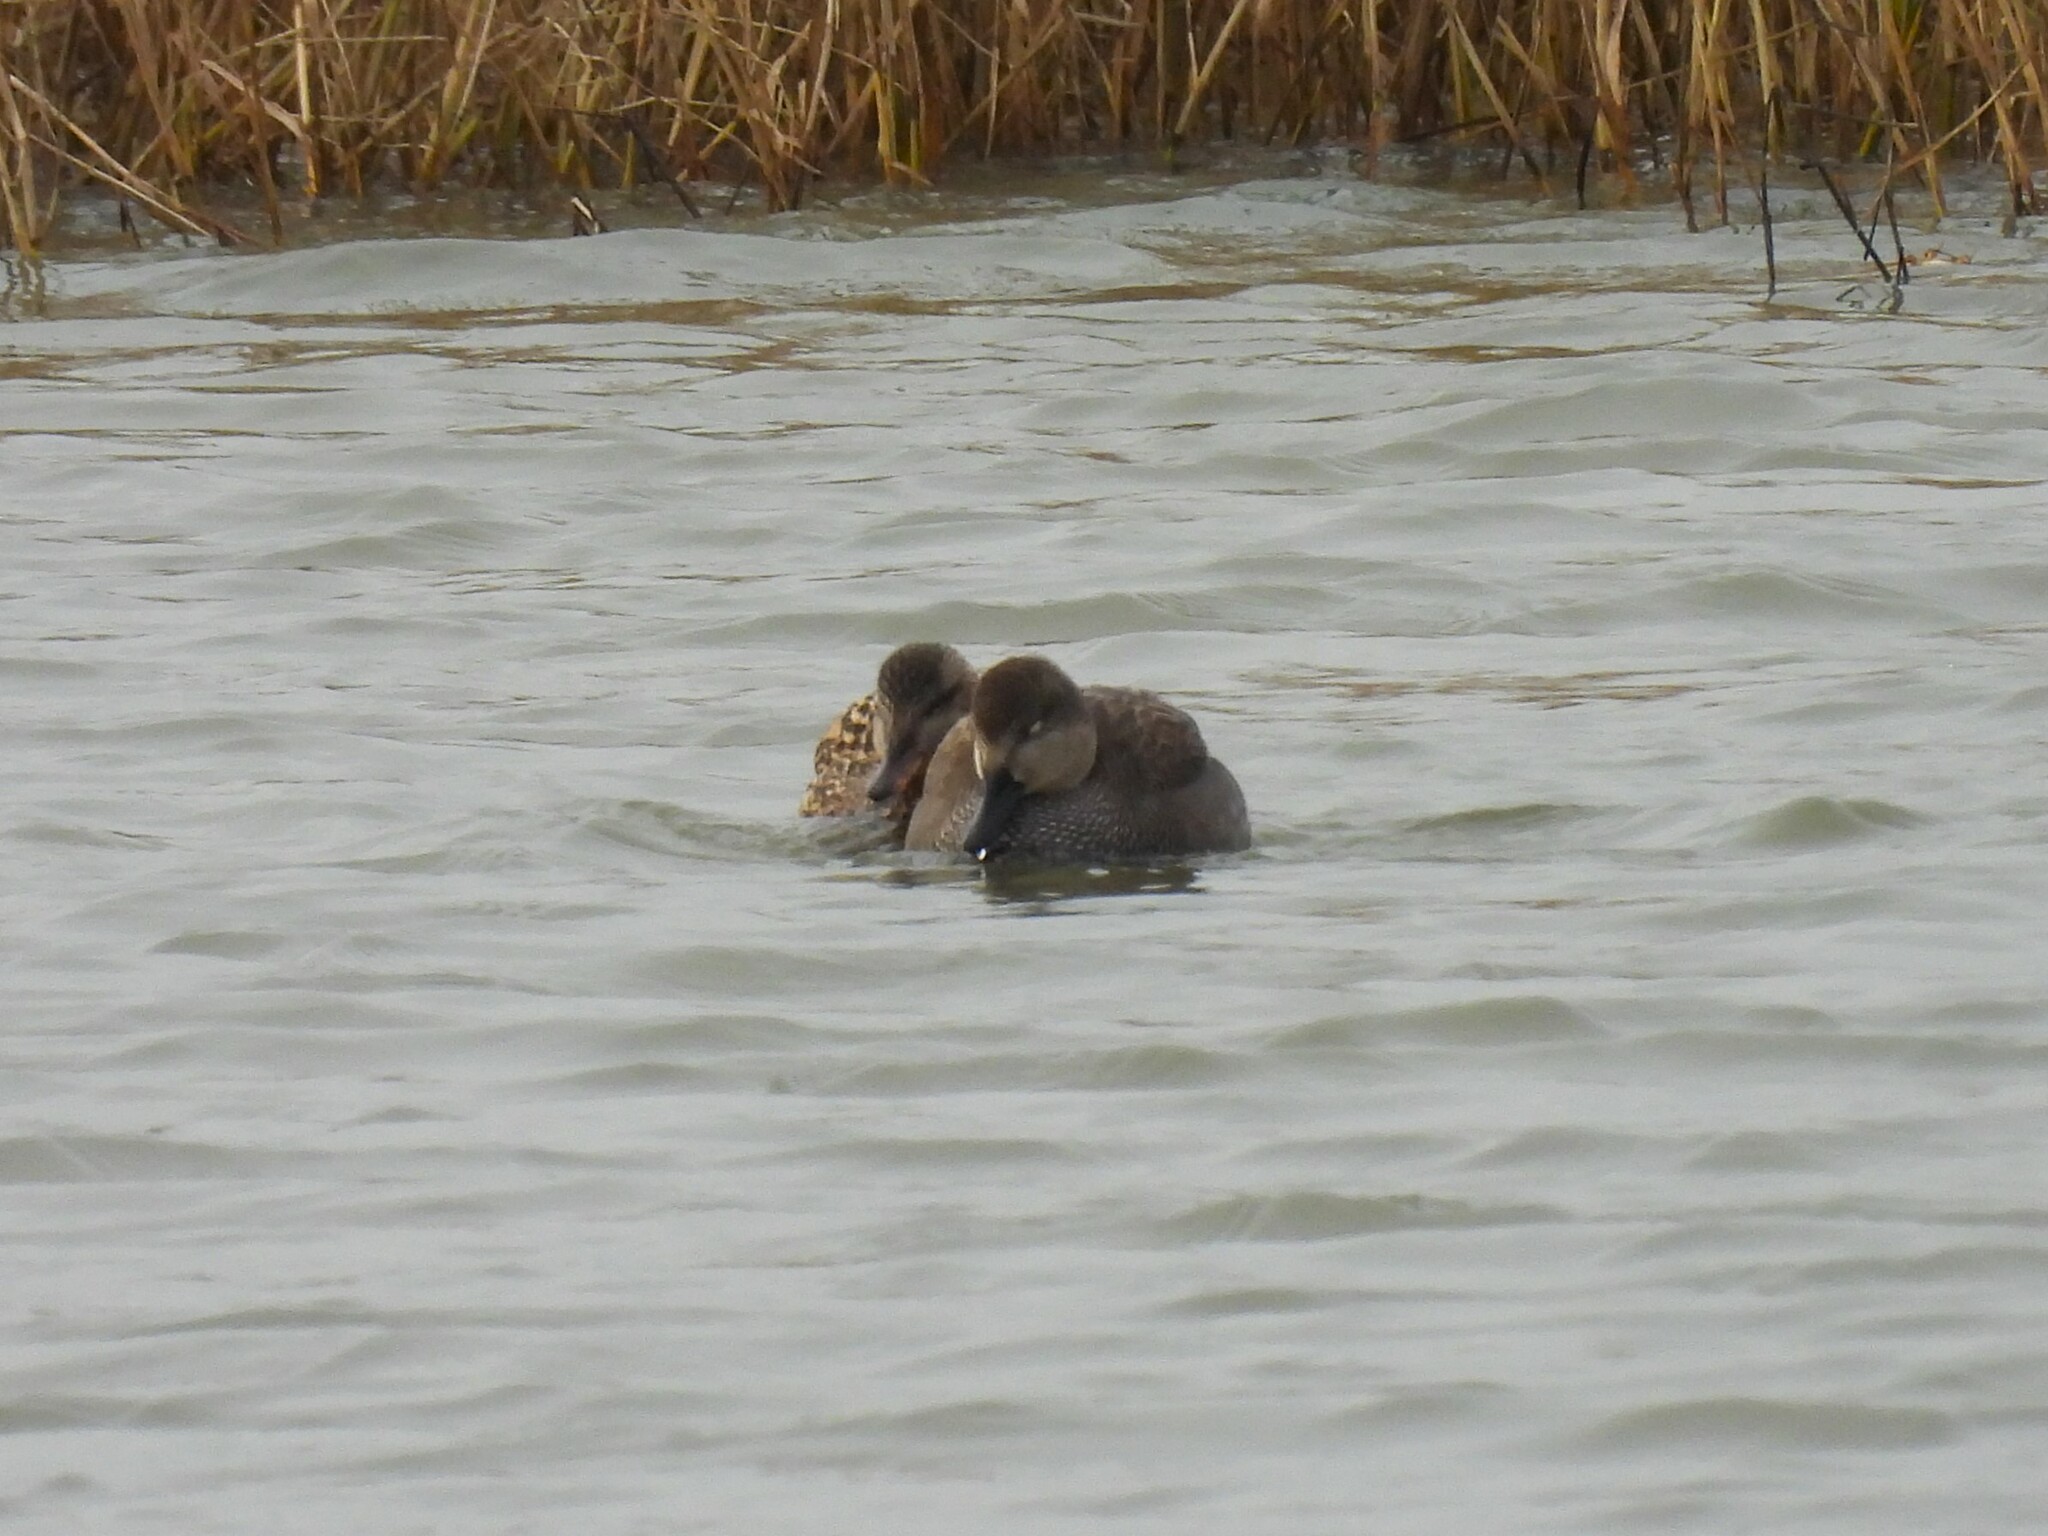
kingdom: Animalia
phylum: Chordata
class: Aves
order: Anseriformes
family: Anatidae
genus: Mareca
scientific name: Mareca strepera
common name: Gadwall
